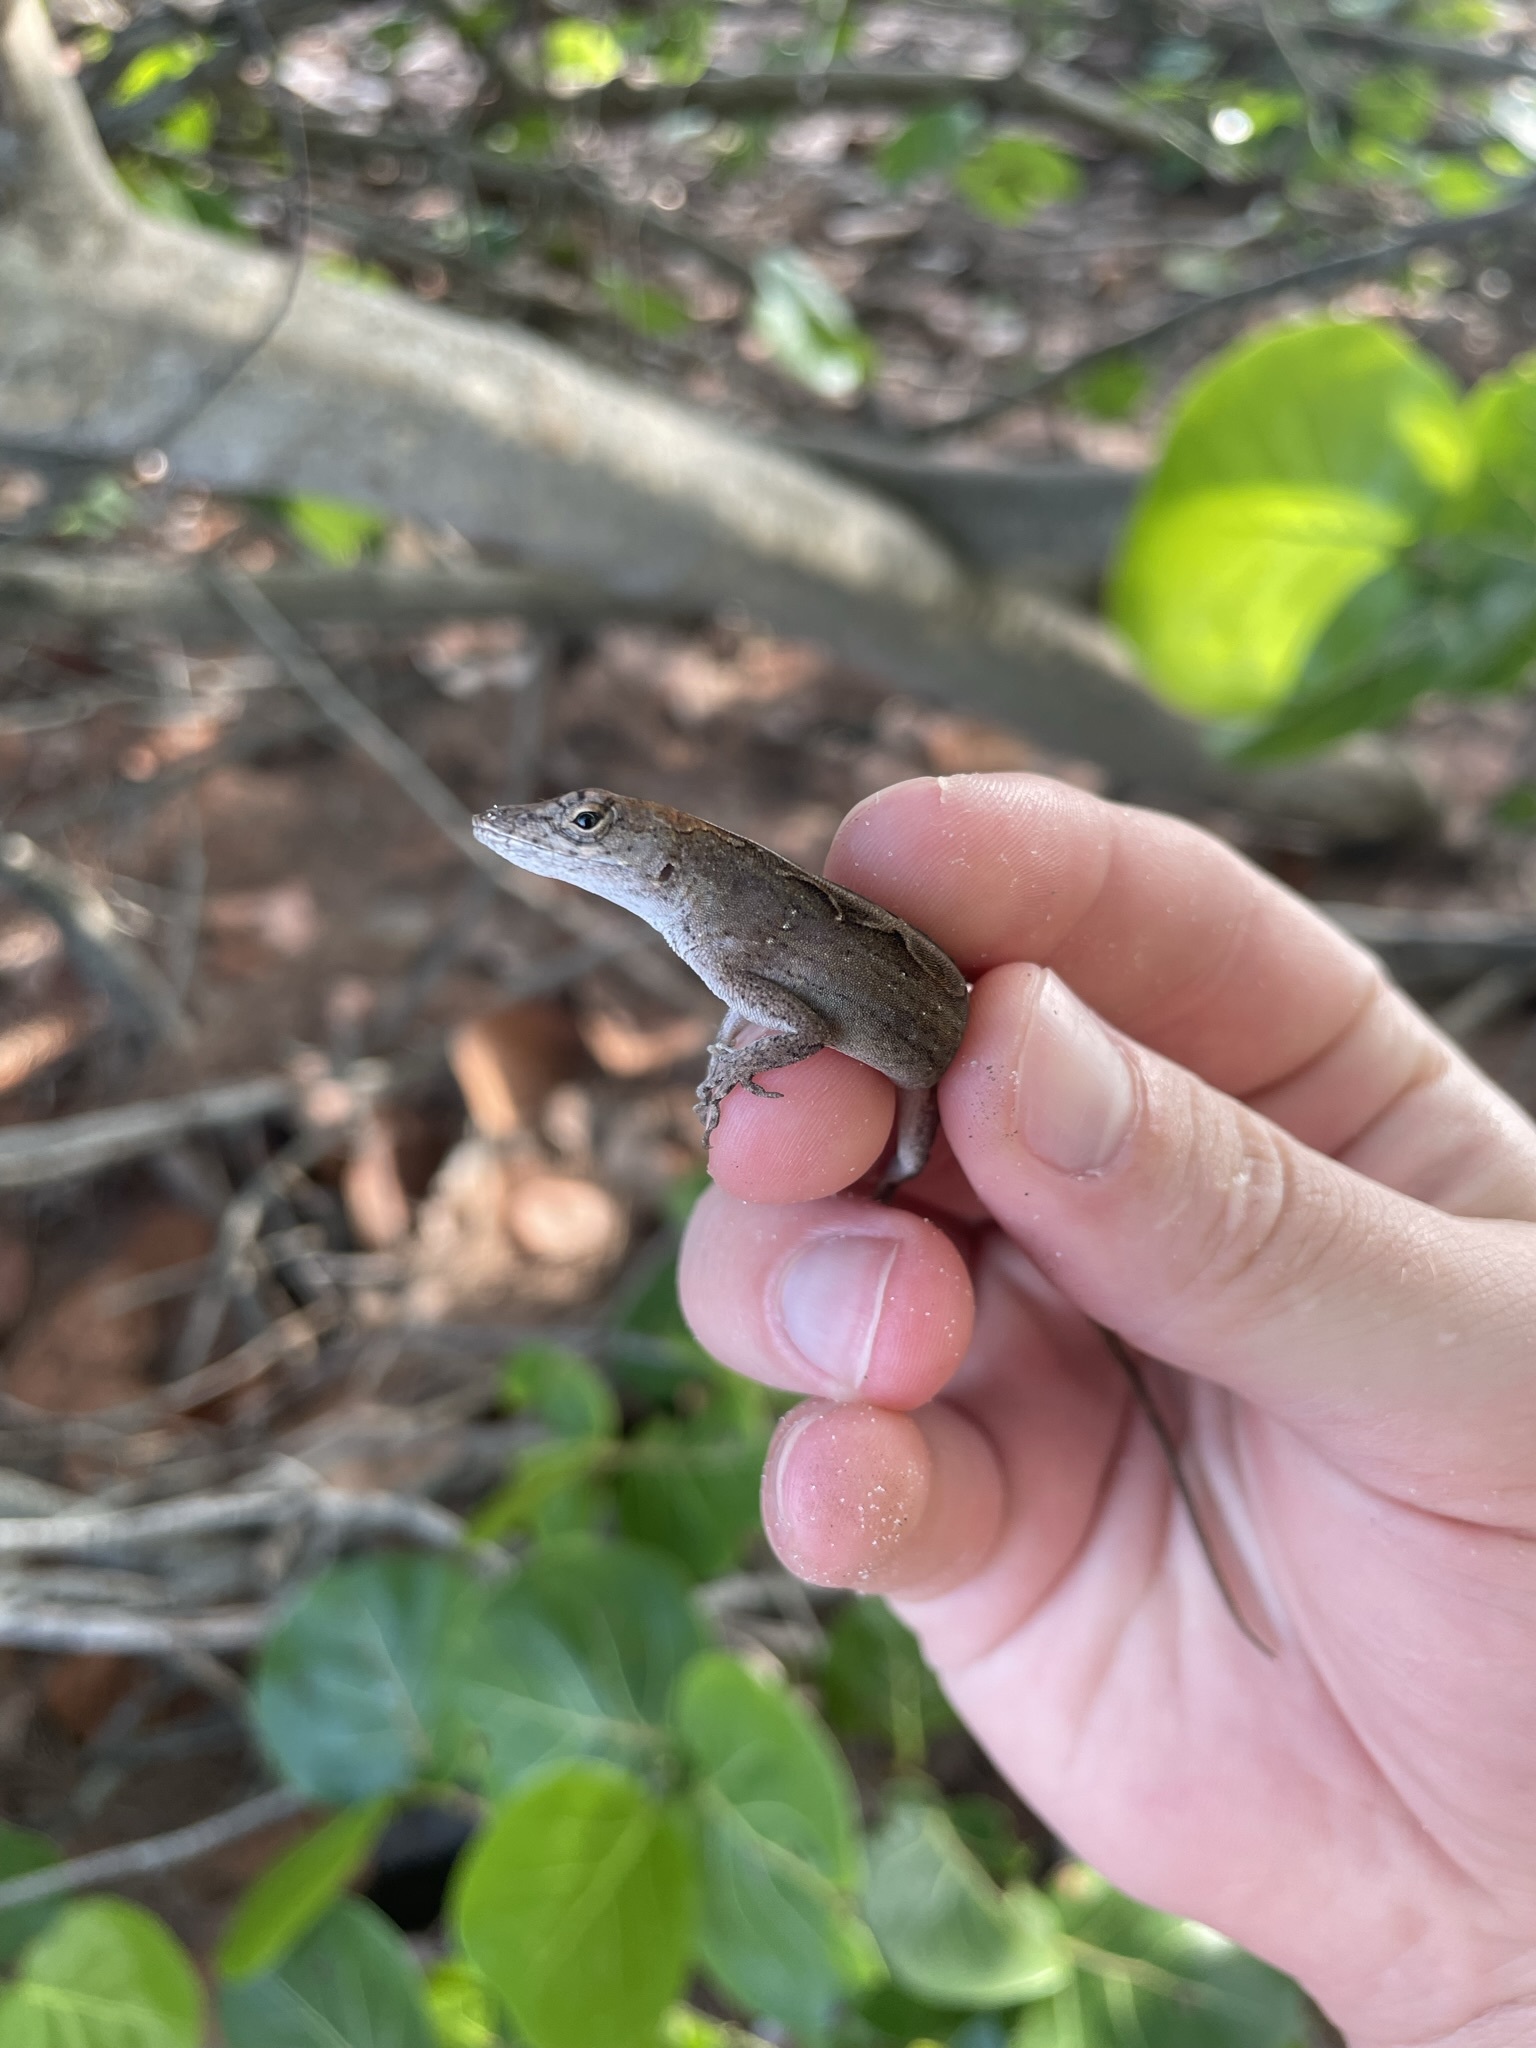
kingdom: Animalia
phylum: Chordata
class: Squamata
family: Dactyloidae
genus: Anolis
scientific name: Anolis sagrei
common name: Brown anole
